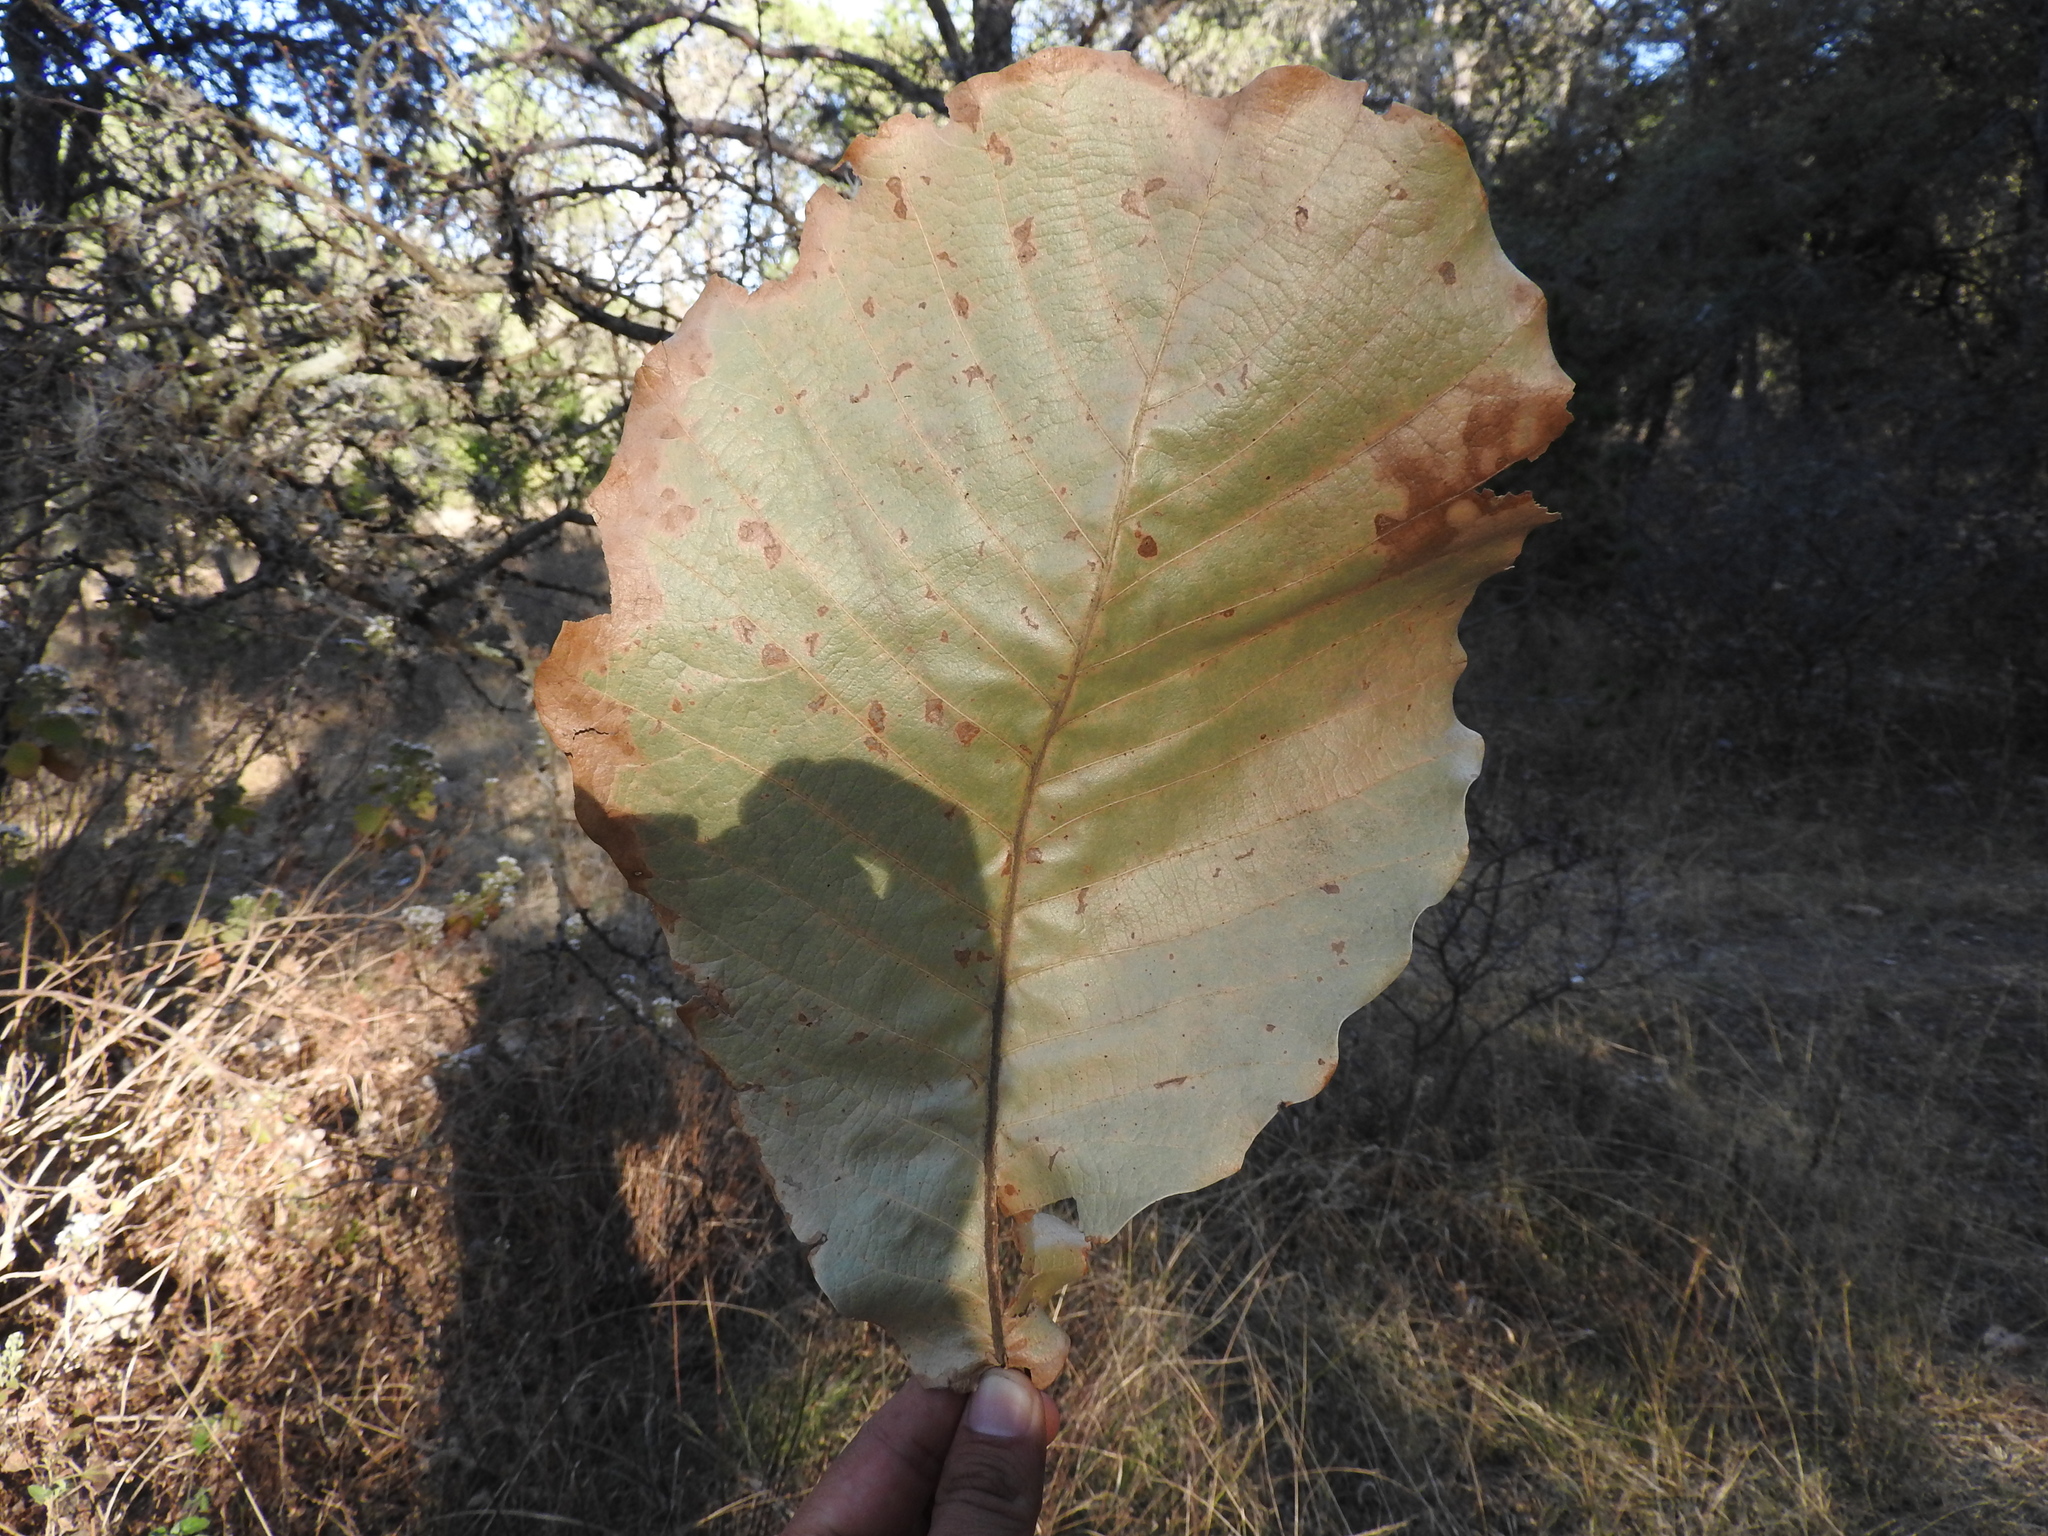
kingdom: Plantae
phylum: Tracheophyta
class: Magnoliopsida
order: Fagales
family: Fagaceae
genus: Quercus
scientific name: Quercus resinosa
